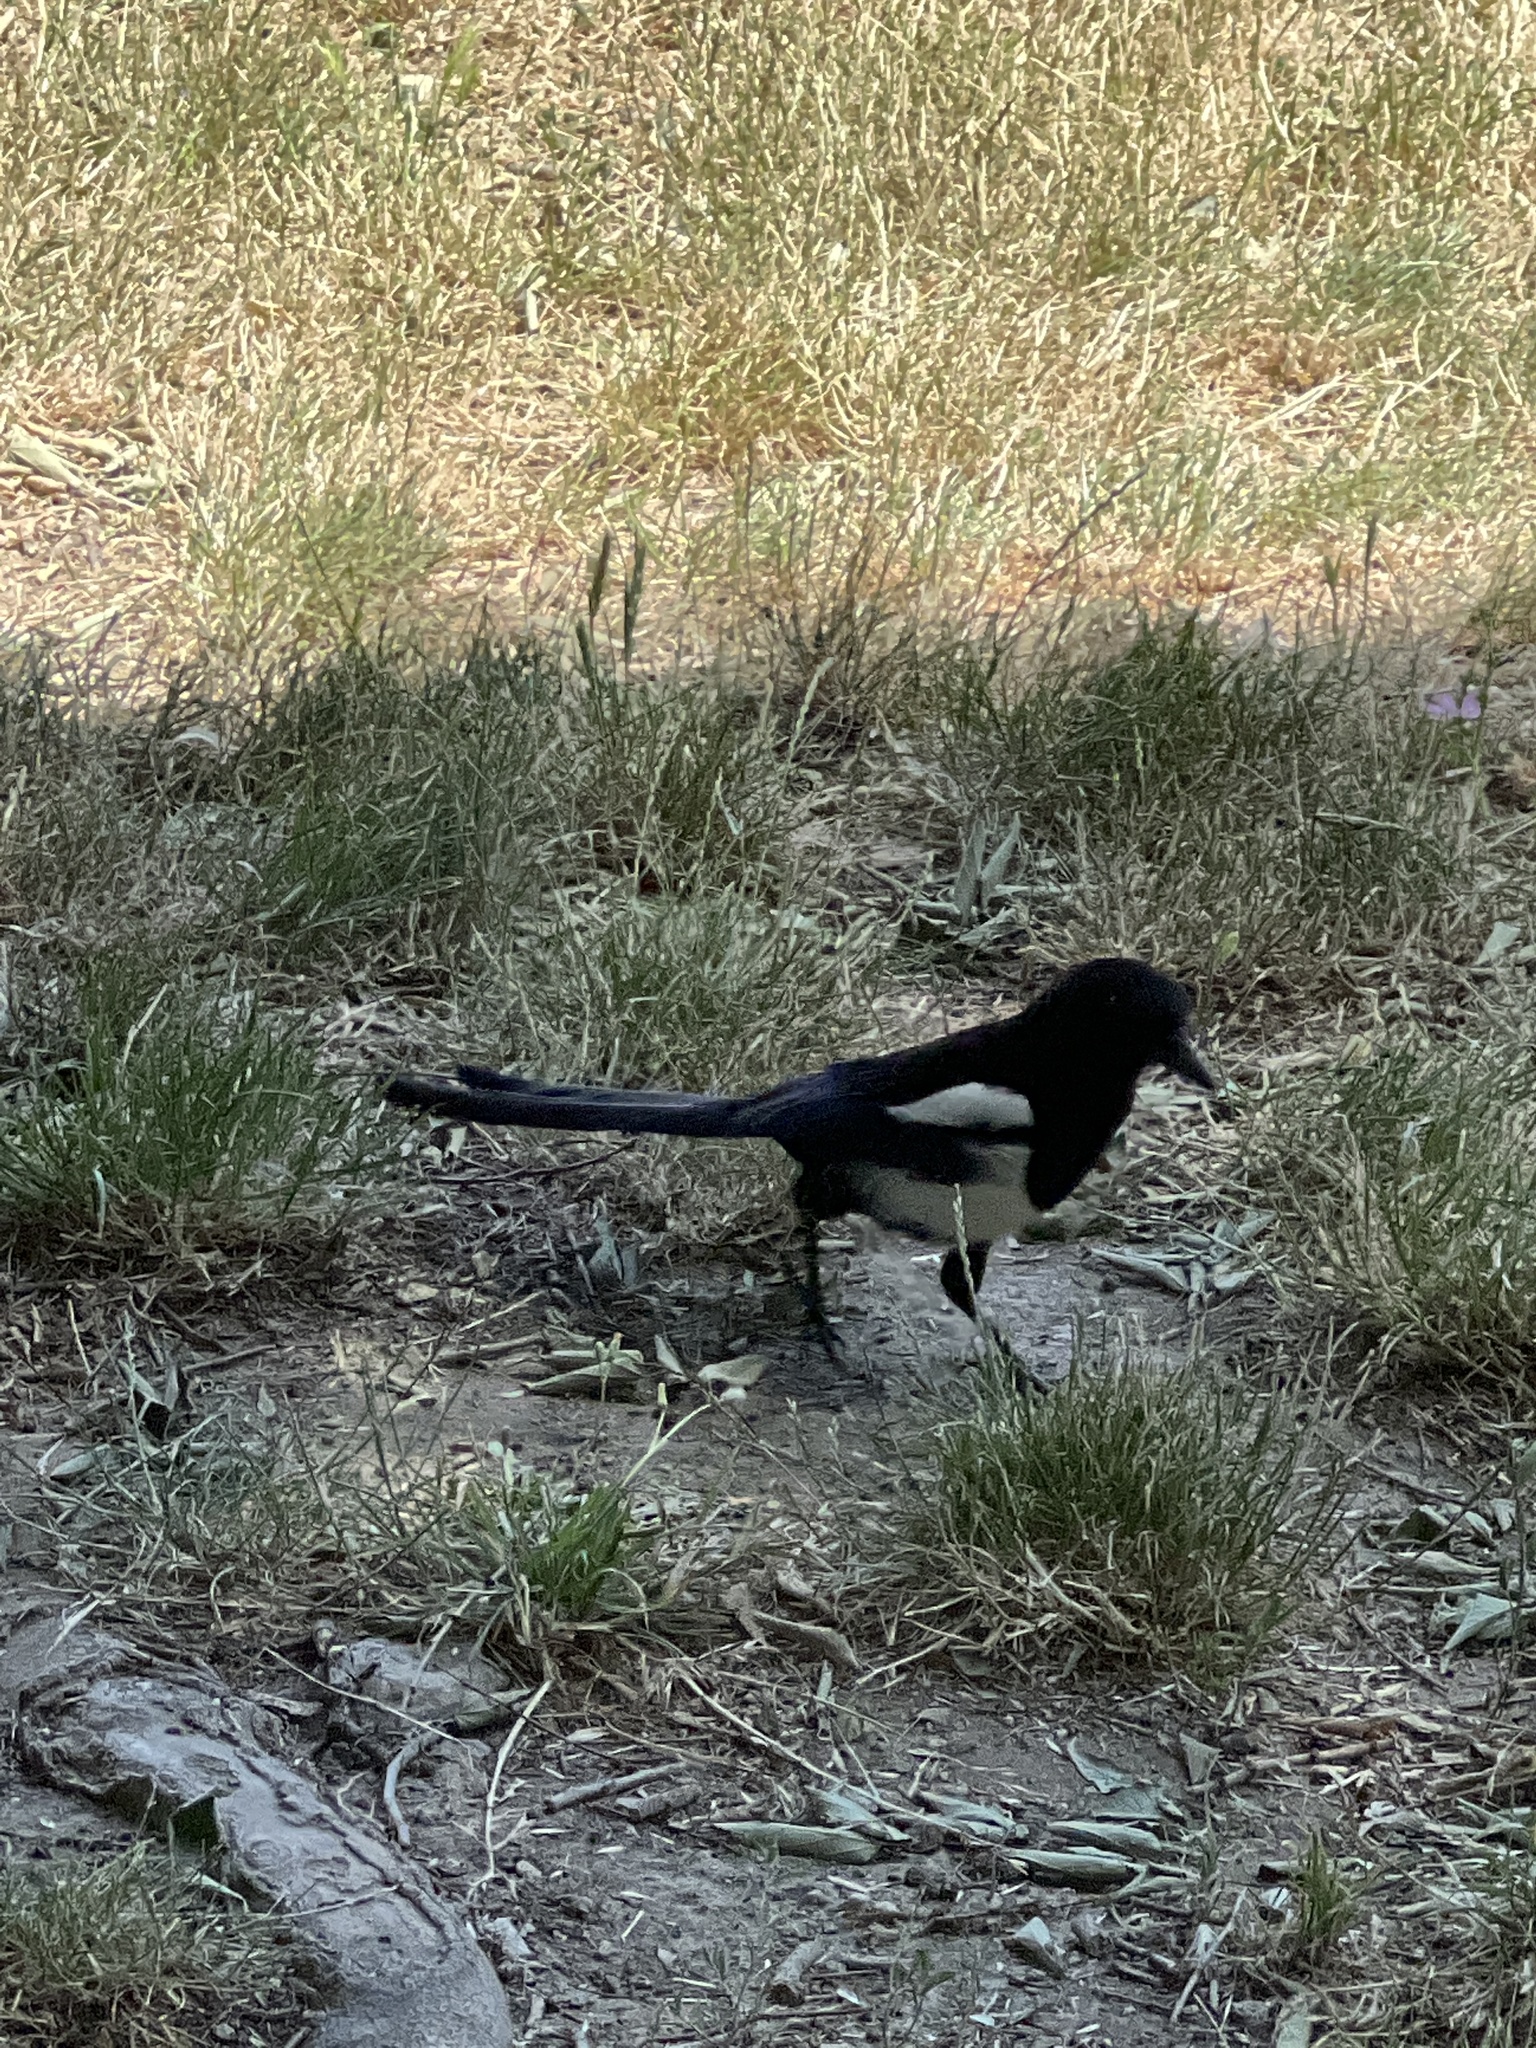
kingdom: Animalia
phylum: Chordata
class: Aves
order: Passeriformes
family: Corvidae
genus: Pica
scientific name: Pica pica
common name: Eurasian magpie
